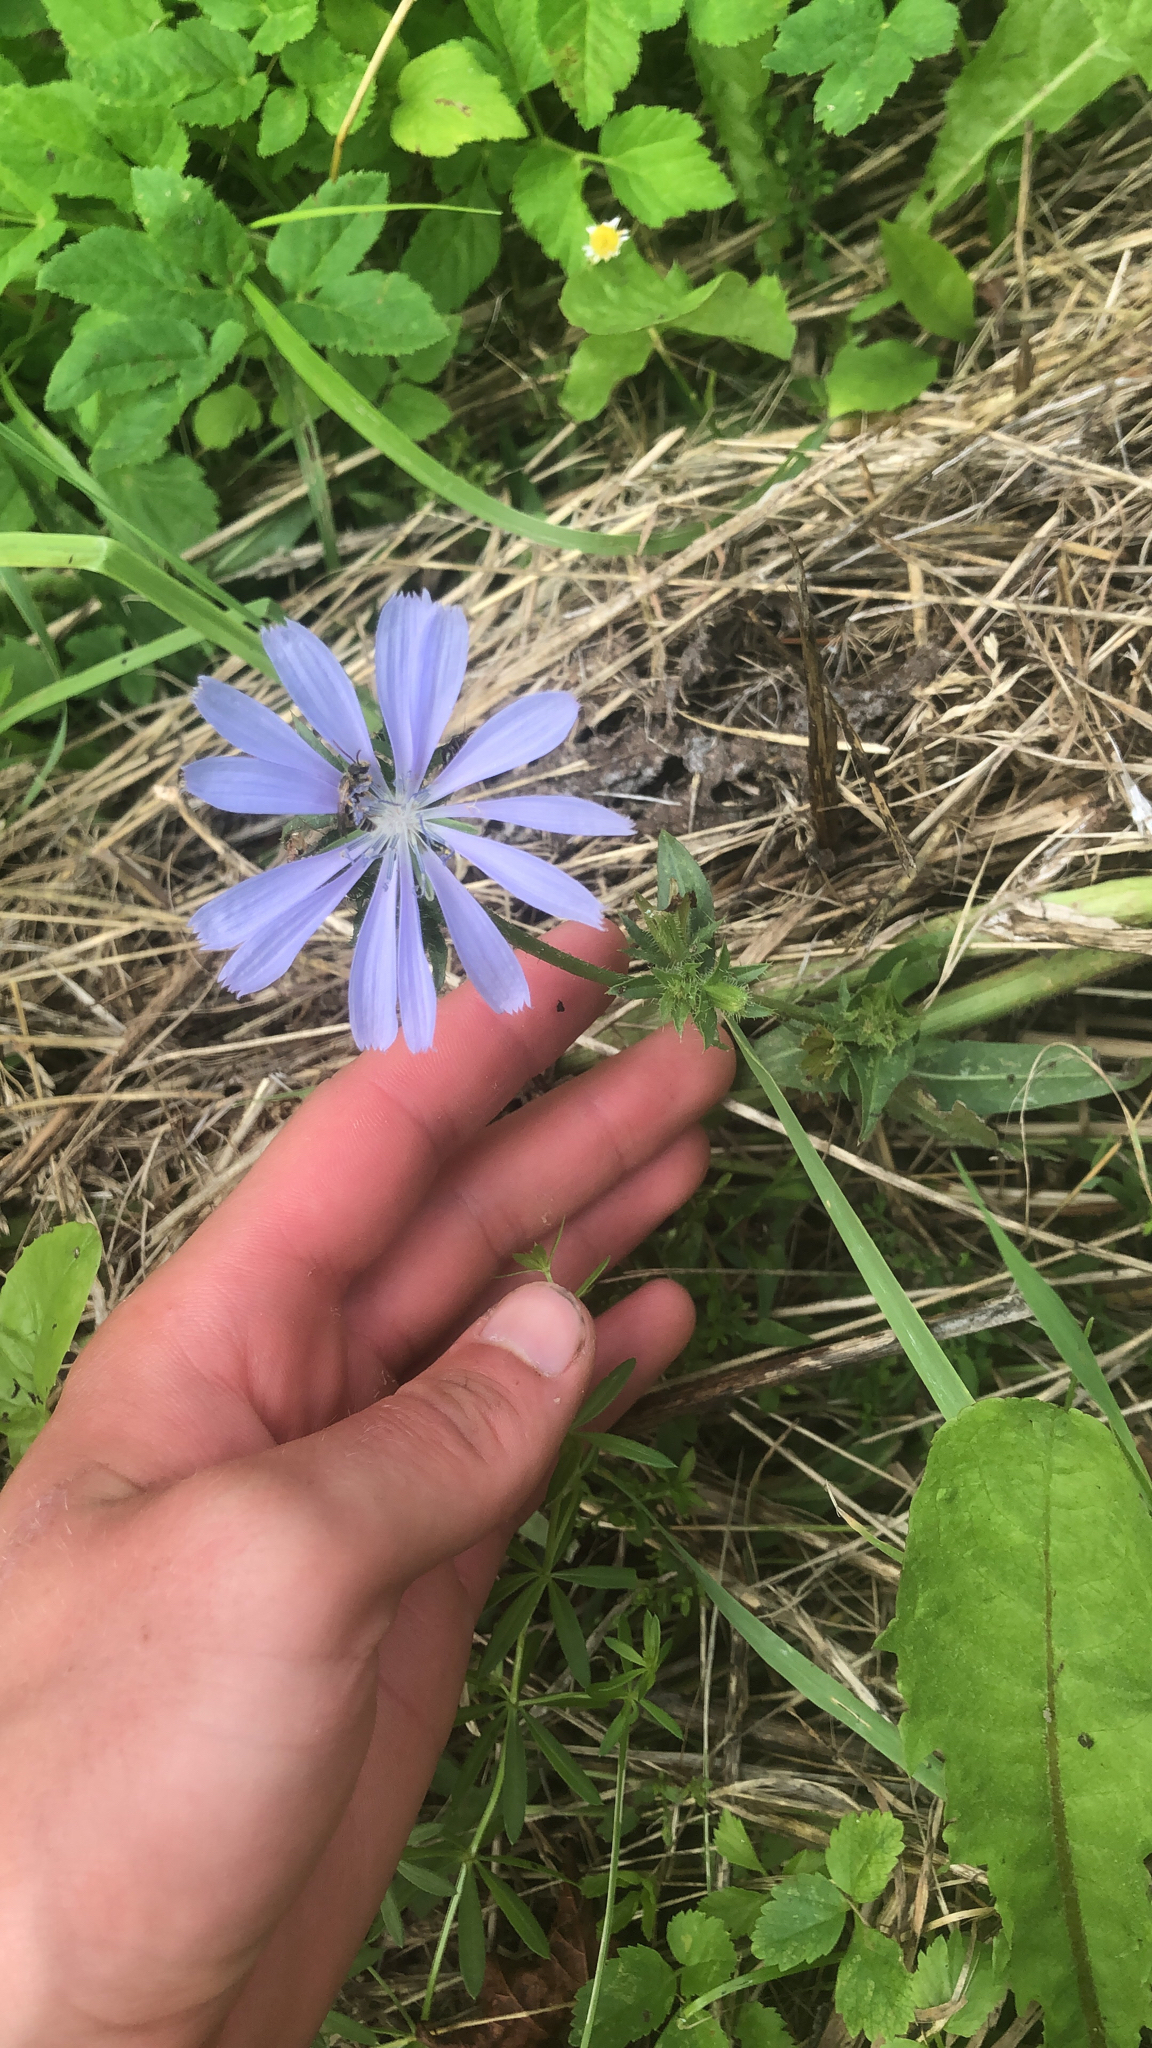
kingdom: Plantae
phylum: Tracheophyta
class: Magnoliopsida
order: Asterales
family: Asteraceae
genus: Cichorium
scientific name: Cichorium intybus
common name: Chicory
